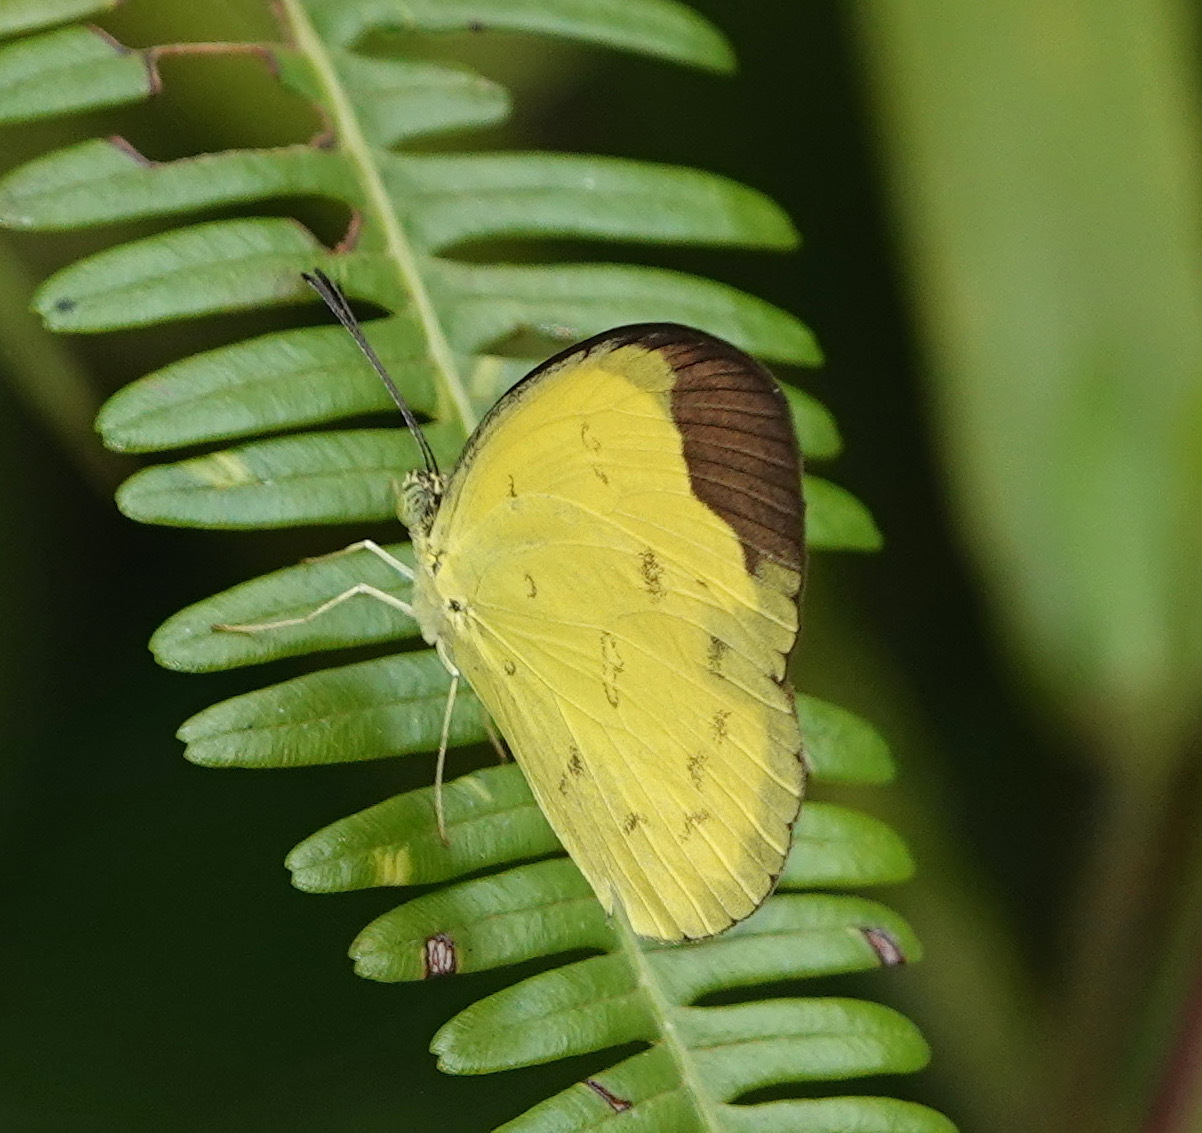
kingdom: Animalia
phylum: Arthropoda
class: Insecta
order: Lepidoptera
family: Pieridae
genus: Eurema
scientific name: Eurema sari
